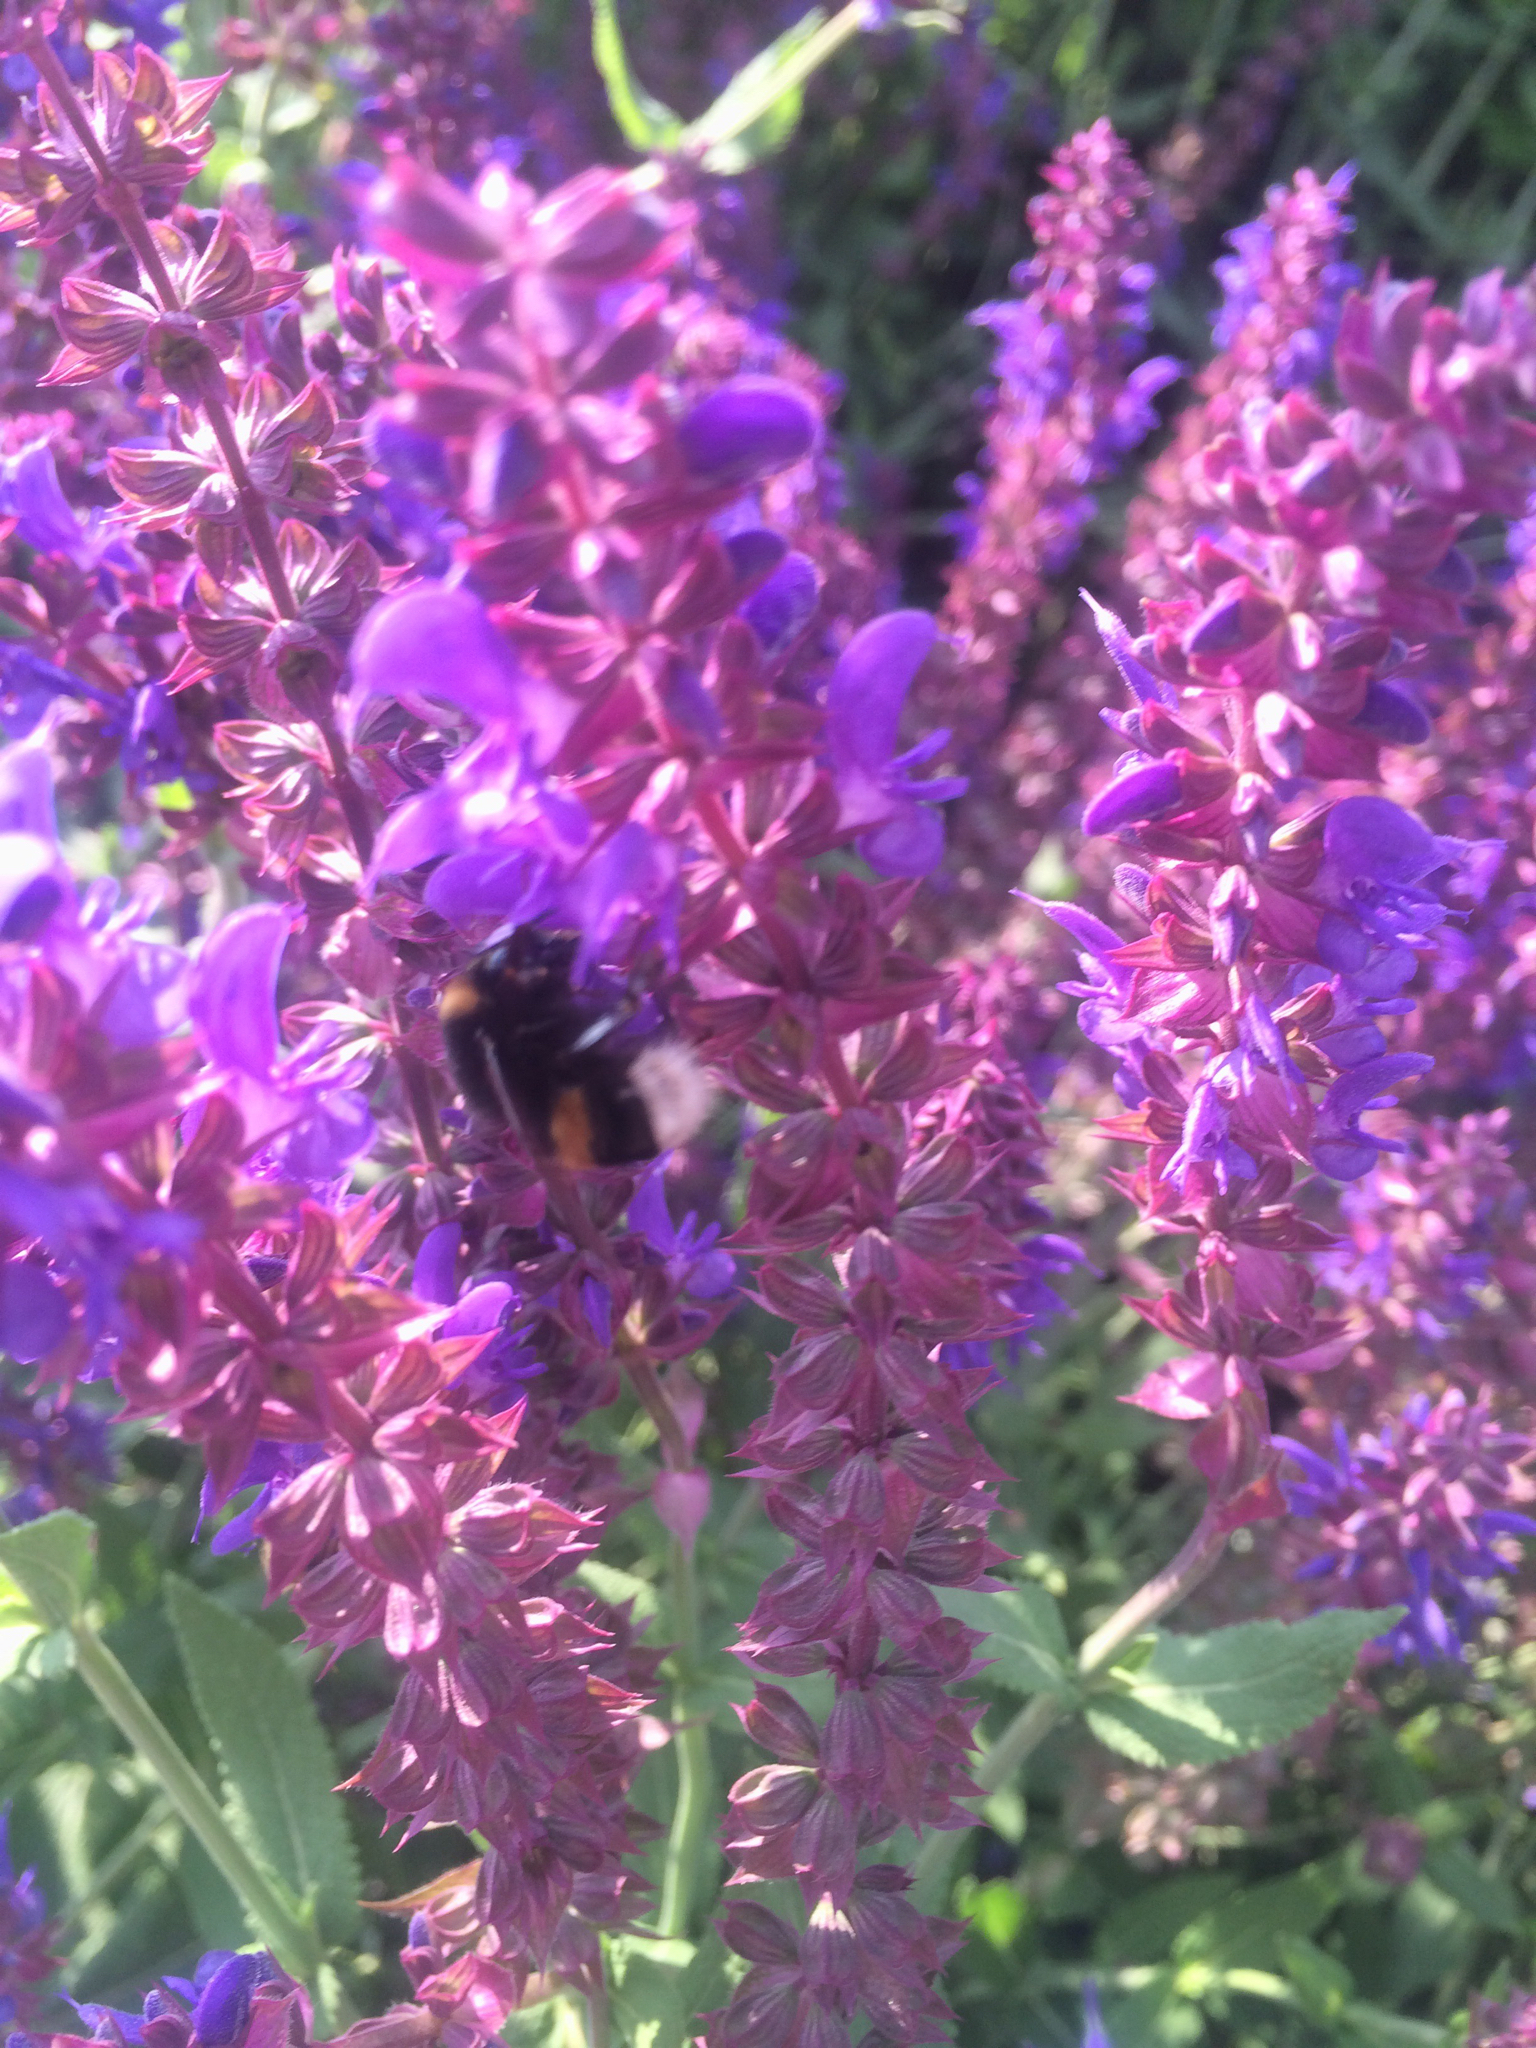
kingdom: Animalia
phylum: Arthropoda
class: Insecta
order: Hymenoptera
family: Apidae
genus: Bombus
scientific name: Bombus terrestris
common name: Buff-tailed bumblebee
